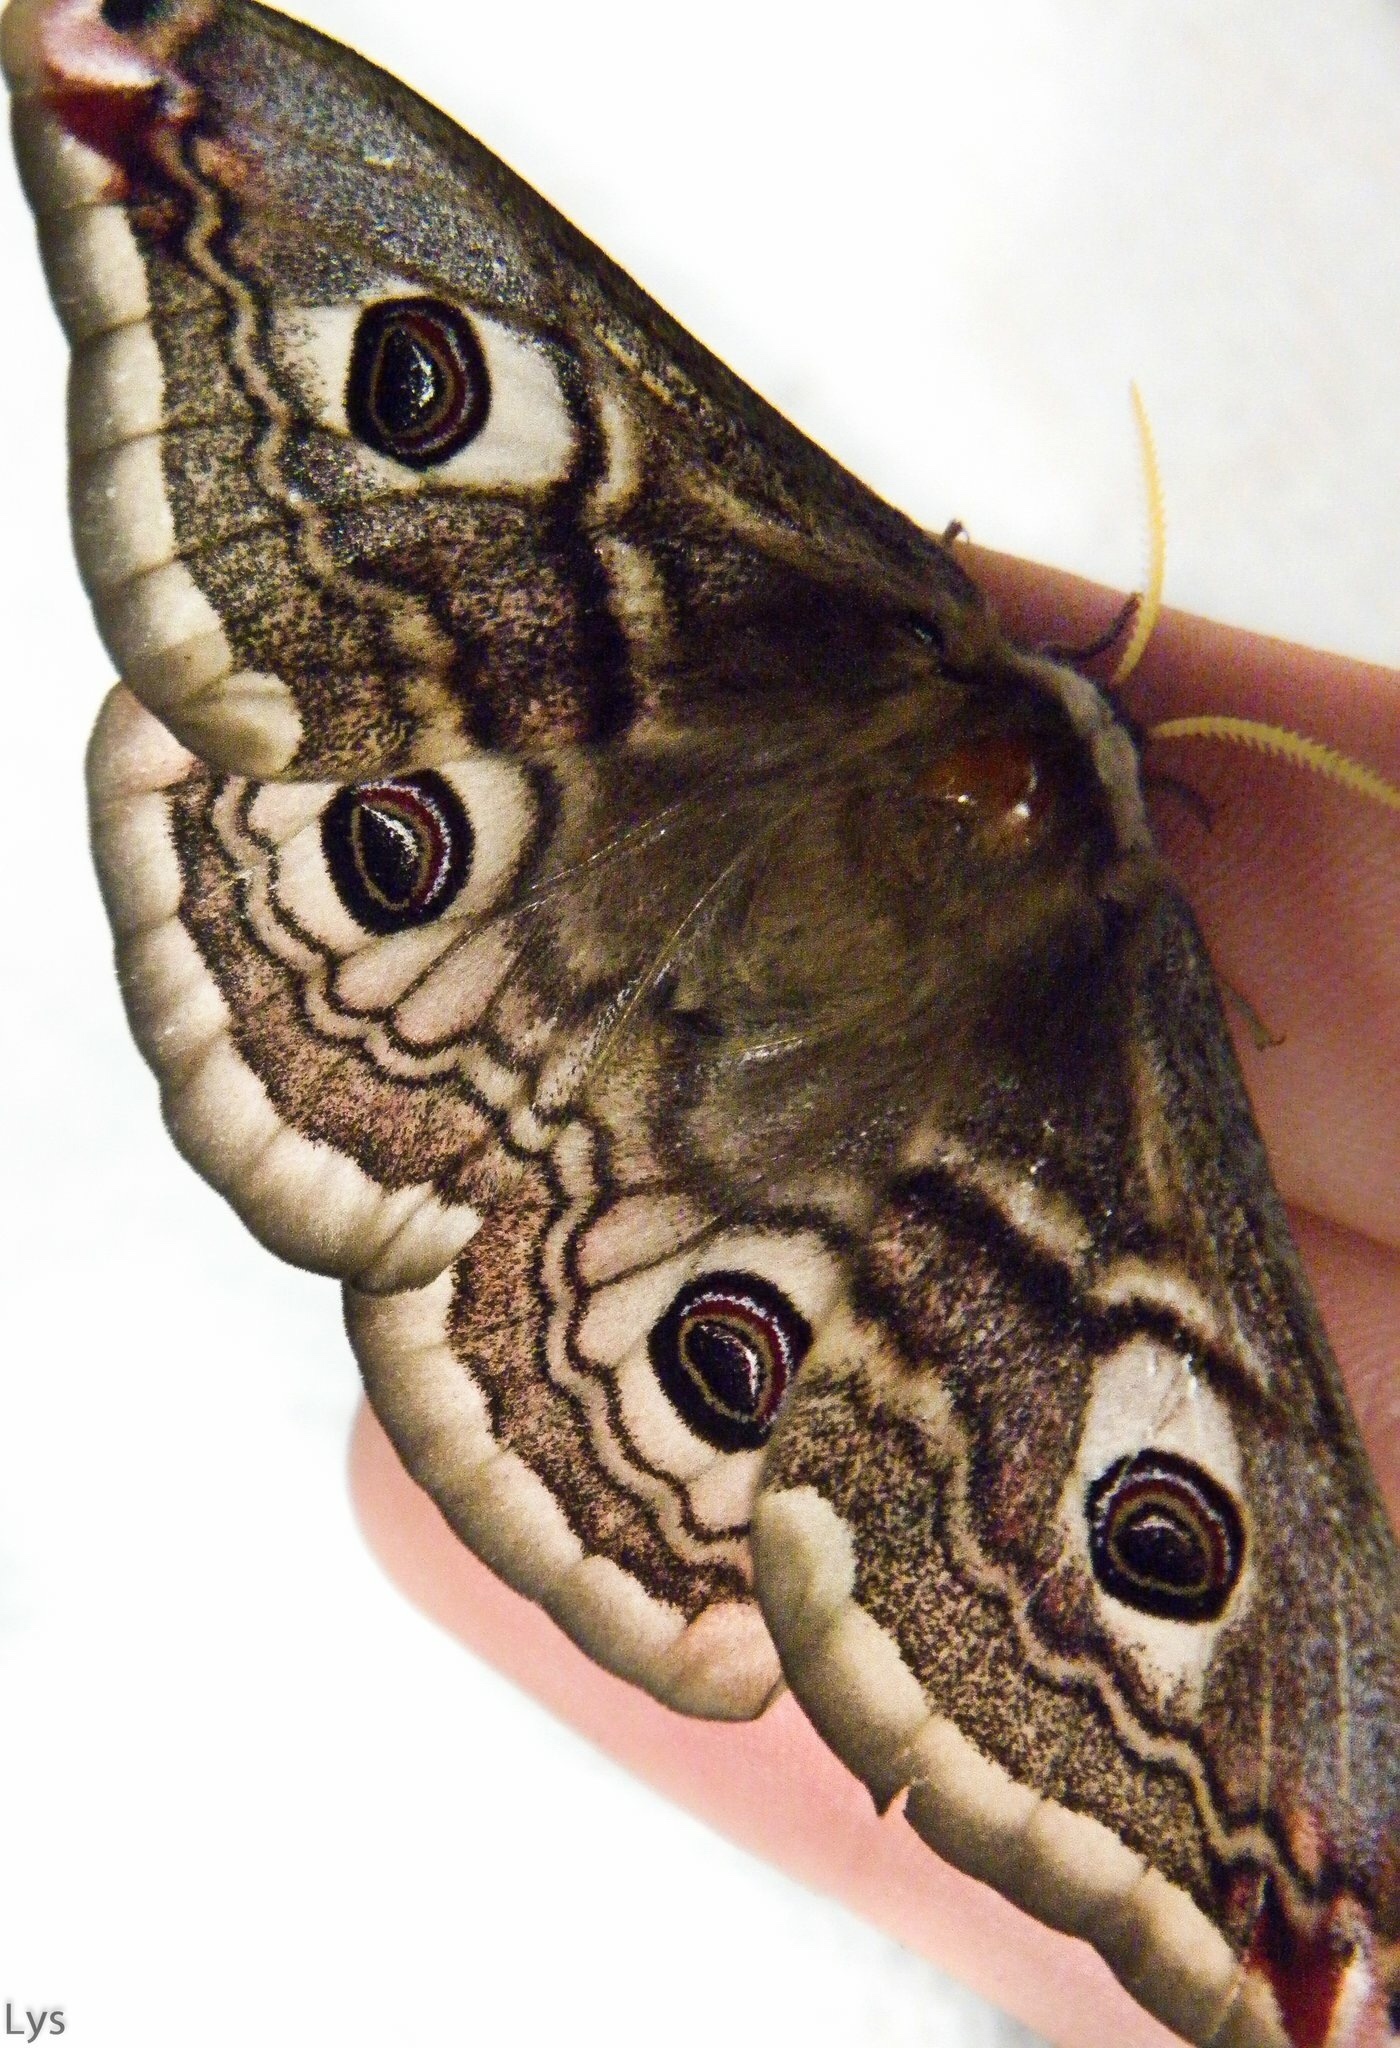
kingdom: Animalia
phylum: Arthropoda
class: Insecta
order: Lepidoptera
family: Saturniidae
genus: Saturnia
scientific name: Saturnia pavoniella
